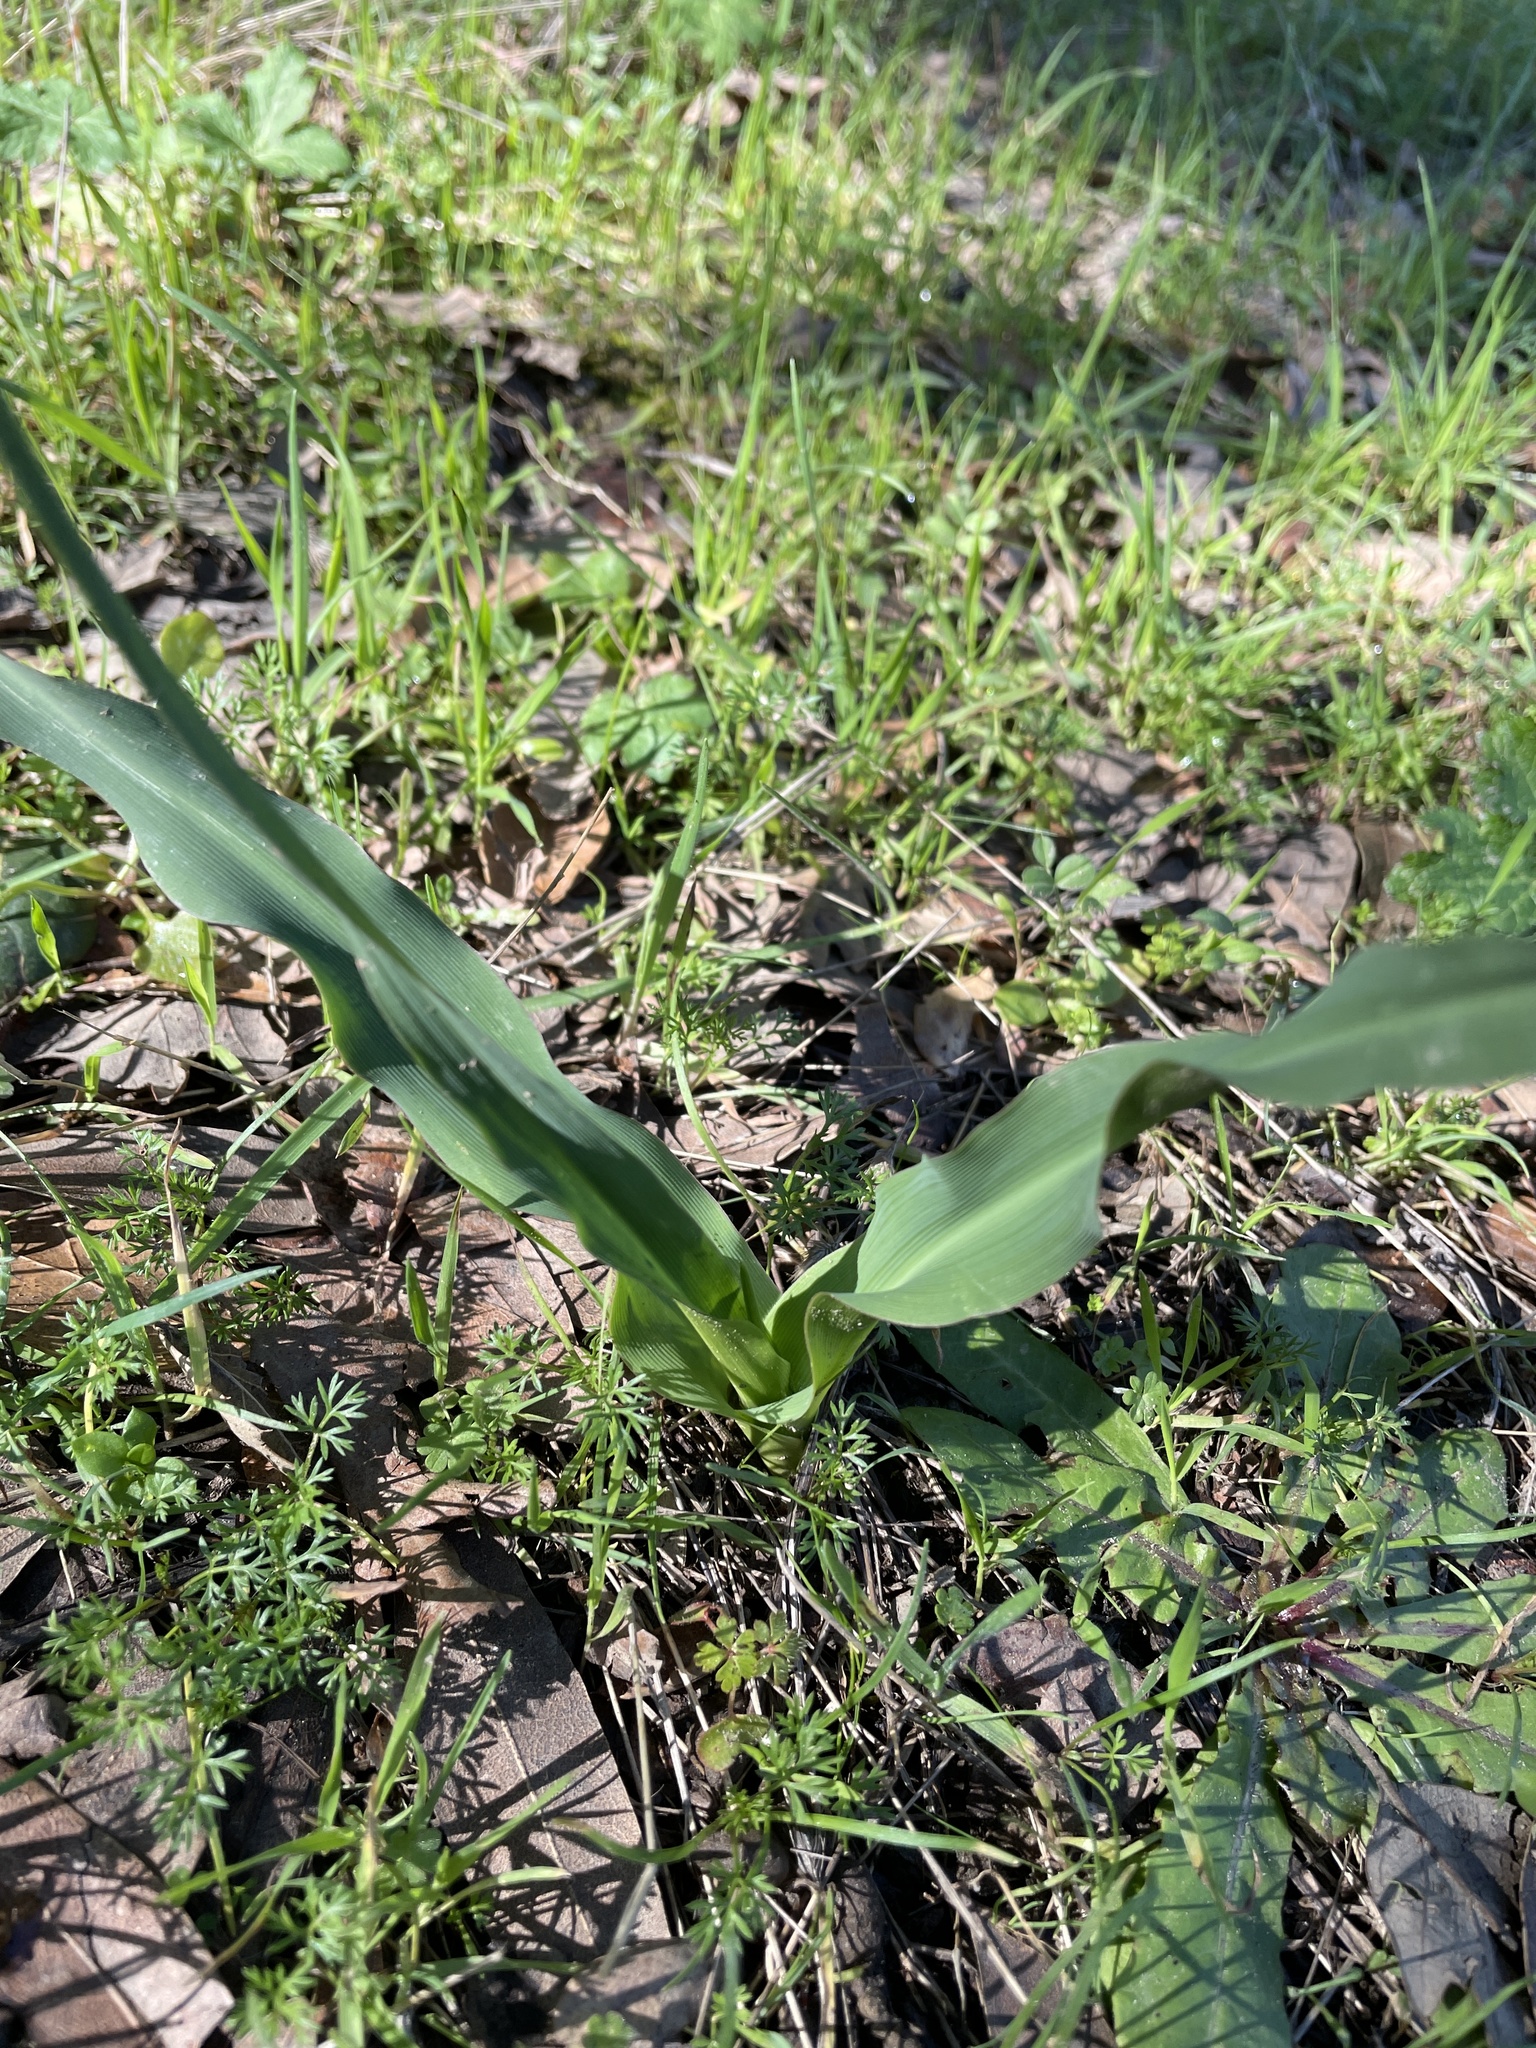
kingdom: Plantae
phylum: Tracheophyta
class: Liliopsida
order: Asparagales
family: Asparagaceae
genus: Chlorogalum
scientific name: Chlorogalum pomeridianum
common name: Amole
